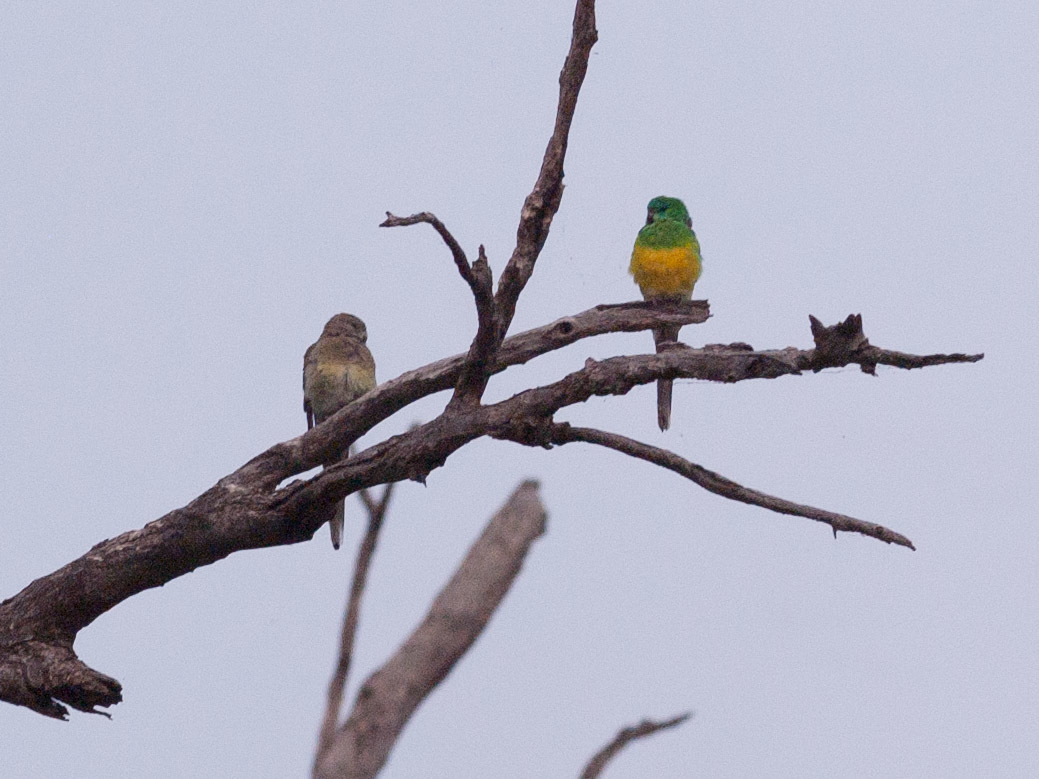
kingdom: Animalia
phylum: Chordata
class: Aves
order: Psittaciformes
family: Psittacidae
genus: Psephotus
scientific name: Psephotus haematonotus
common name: Red-rumped parrot
